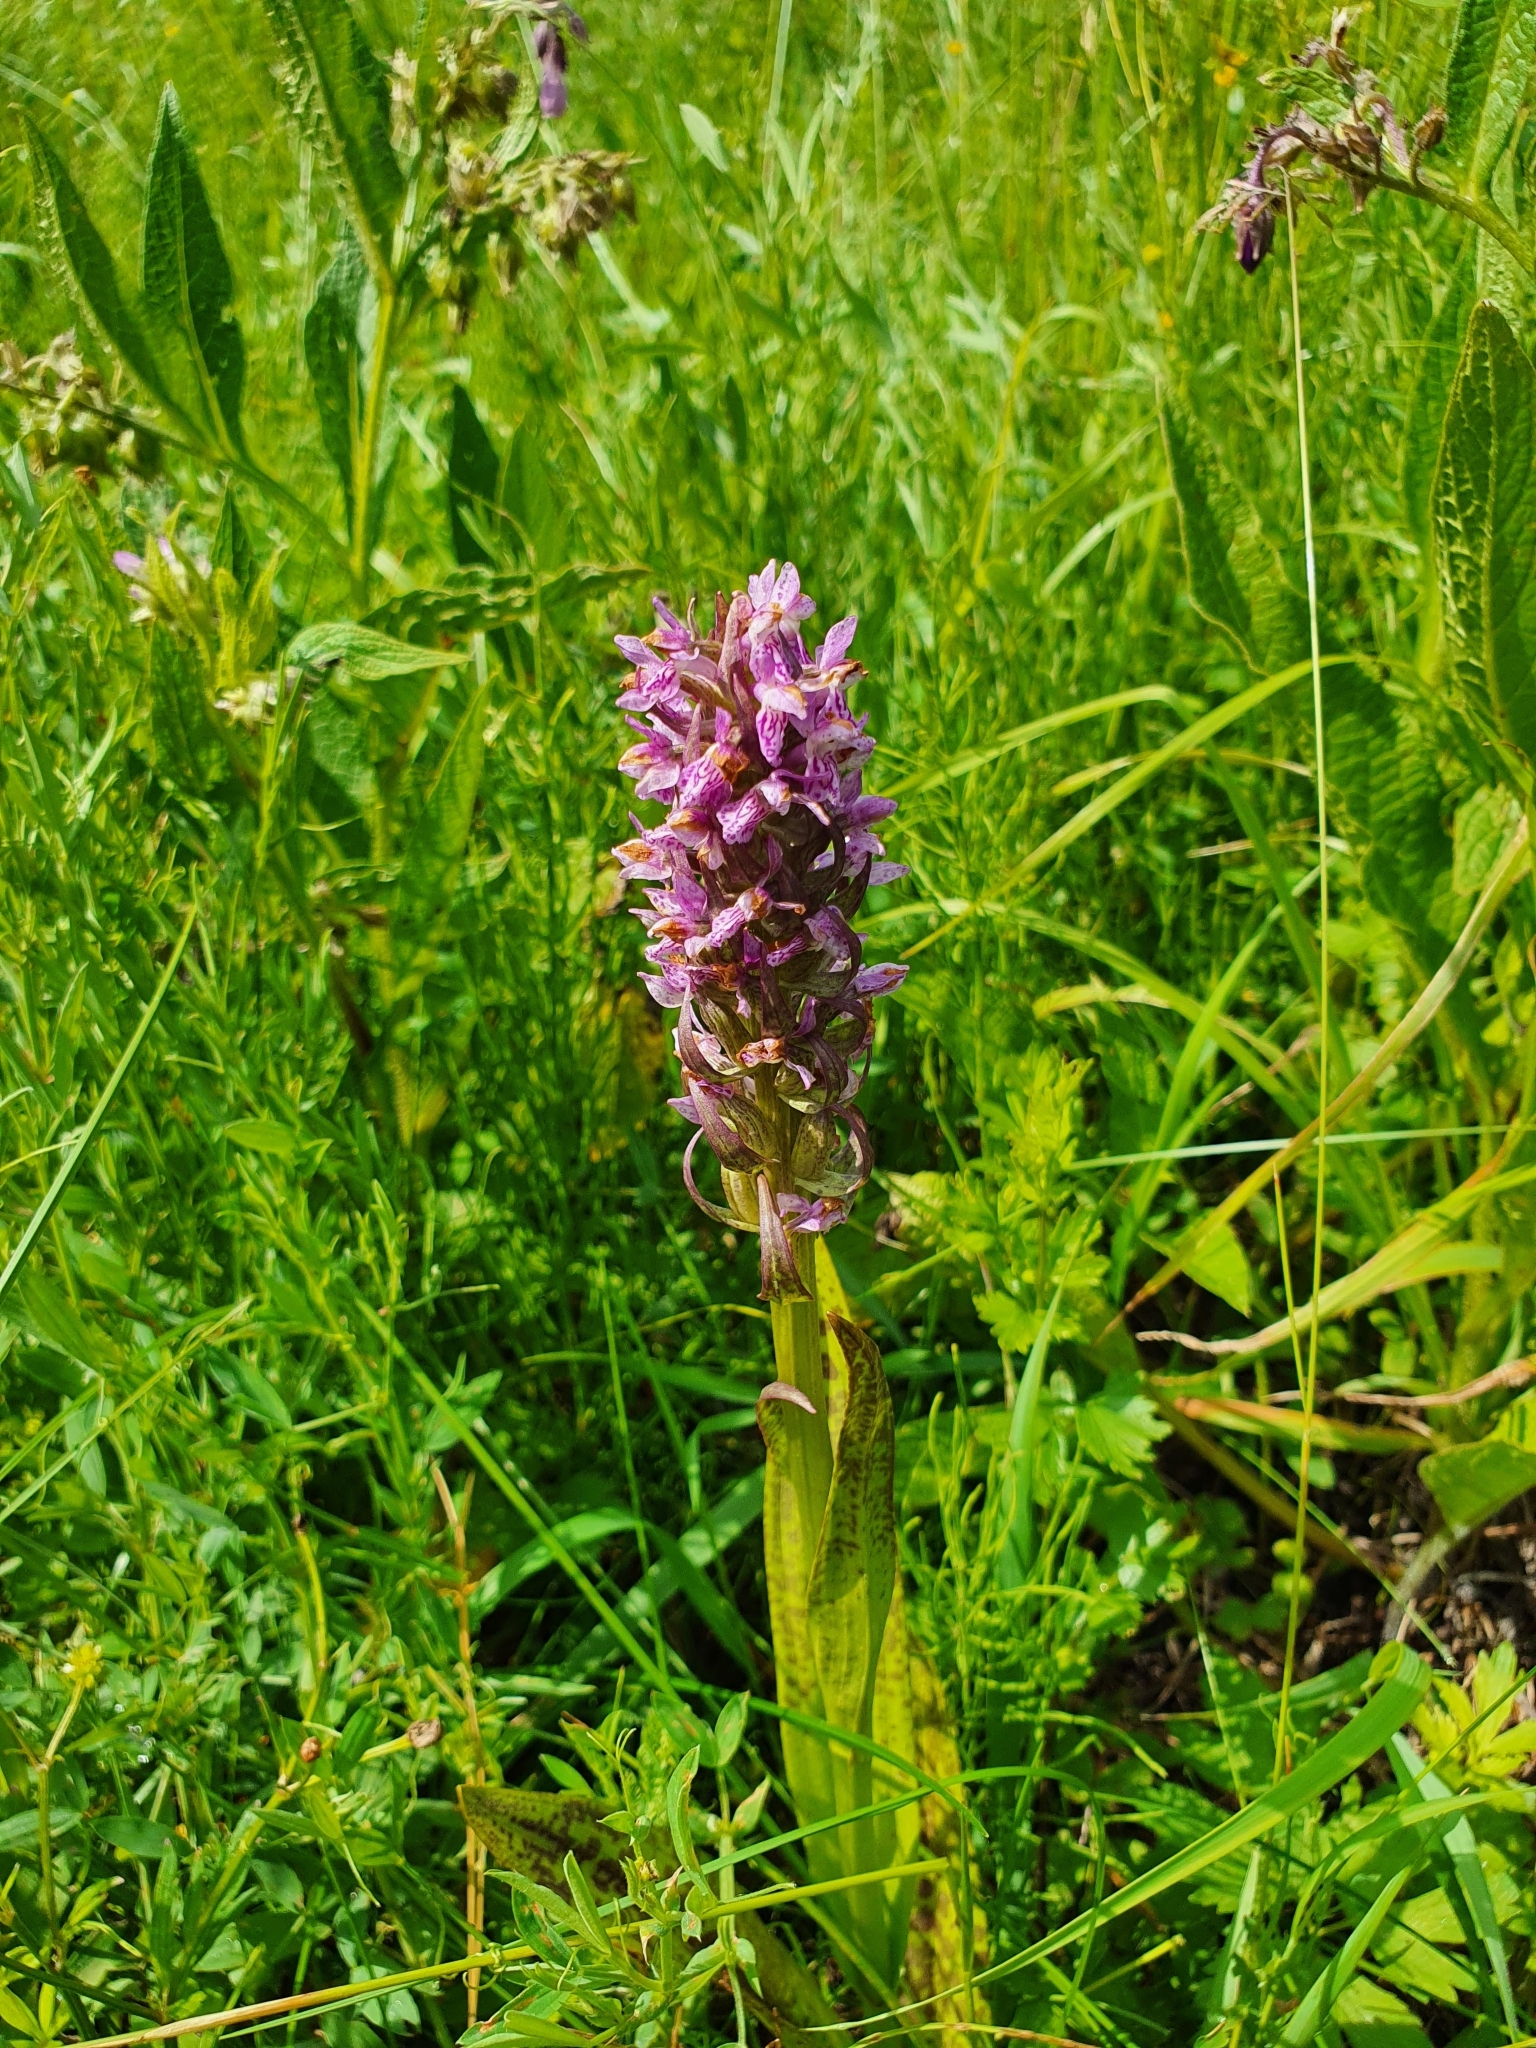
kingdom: Plantae
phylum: Tracheophyta
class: Liliopsida
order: Asparagales
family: Orchidaceae
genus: Dactylorhiza
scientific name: Dactylorhiza incarnata
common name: Early marsh-orchid
